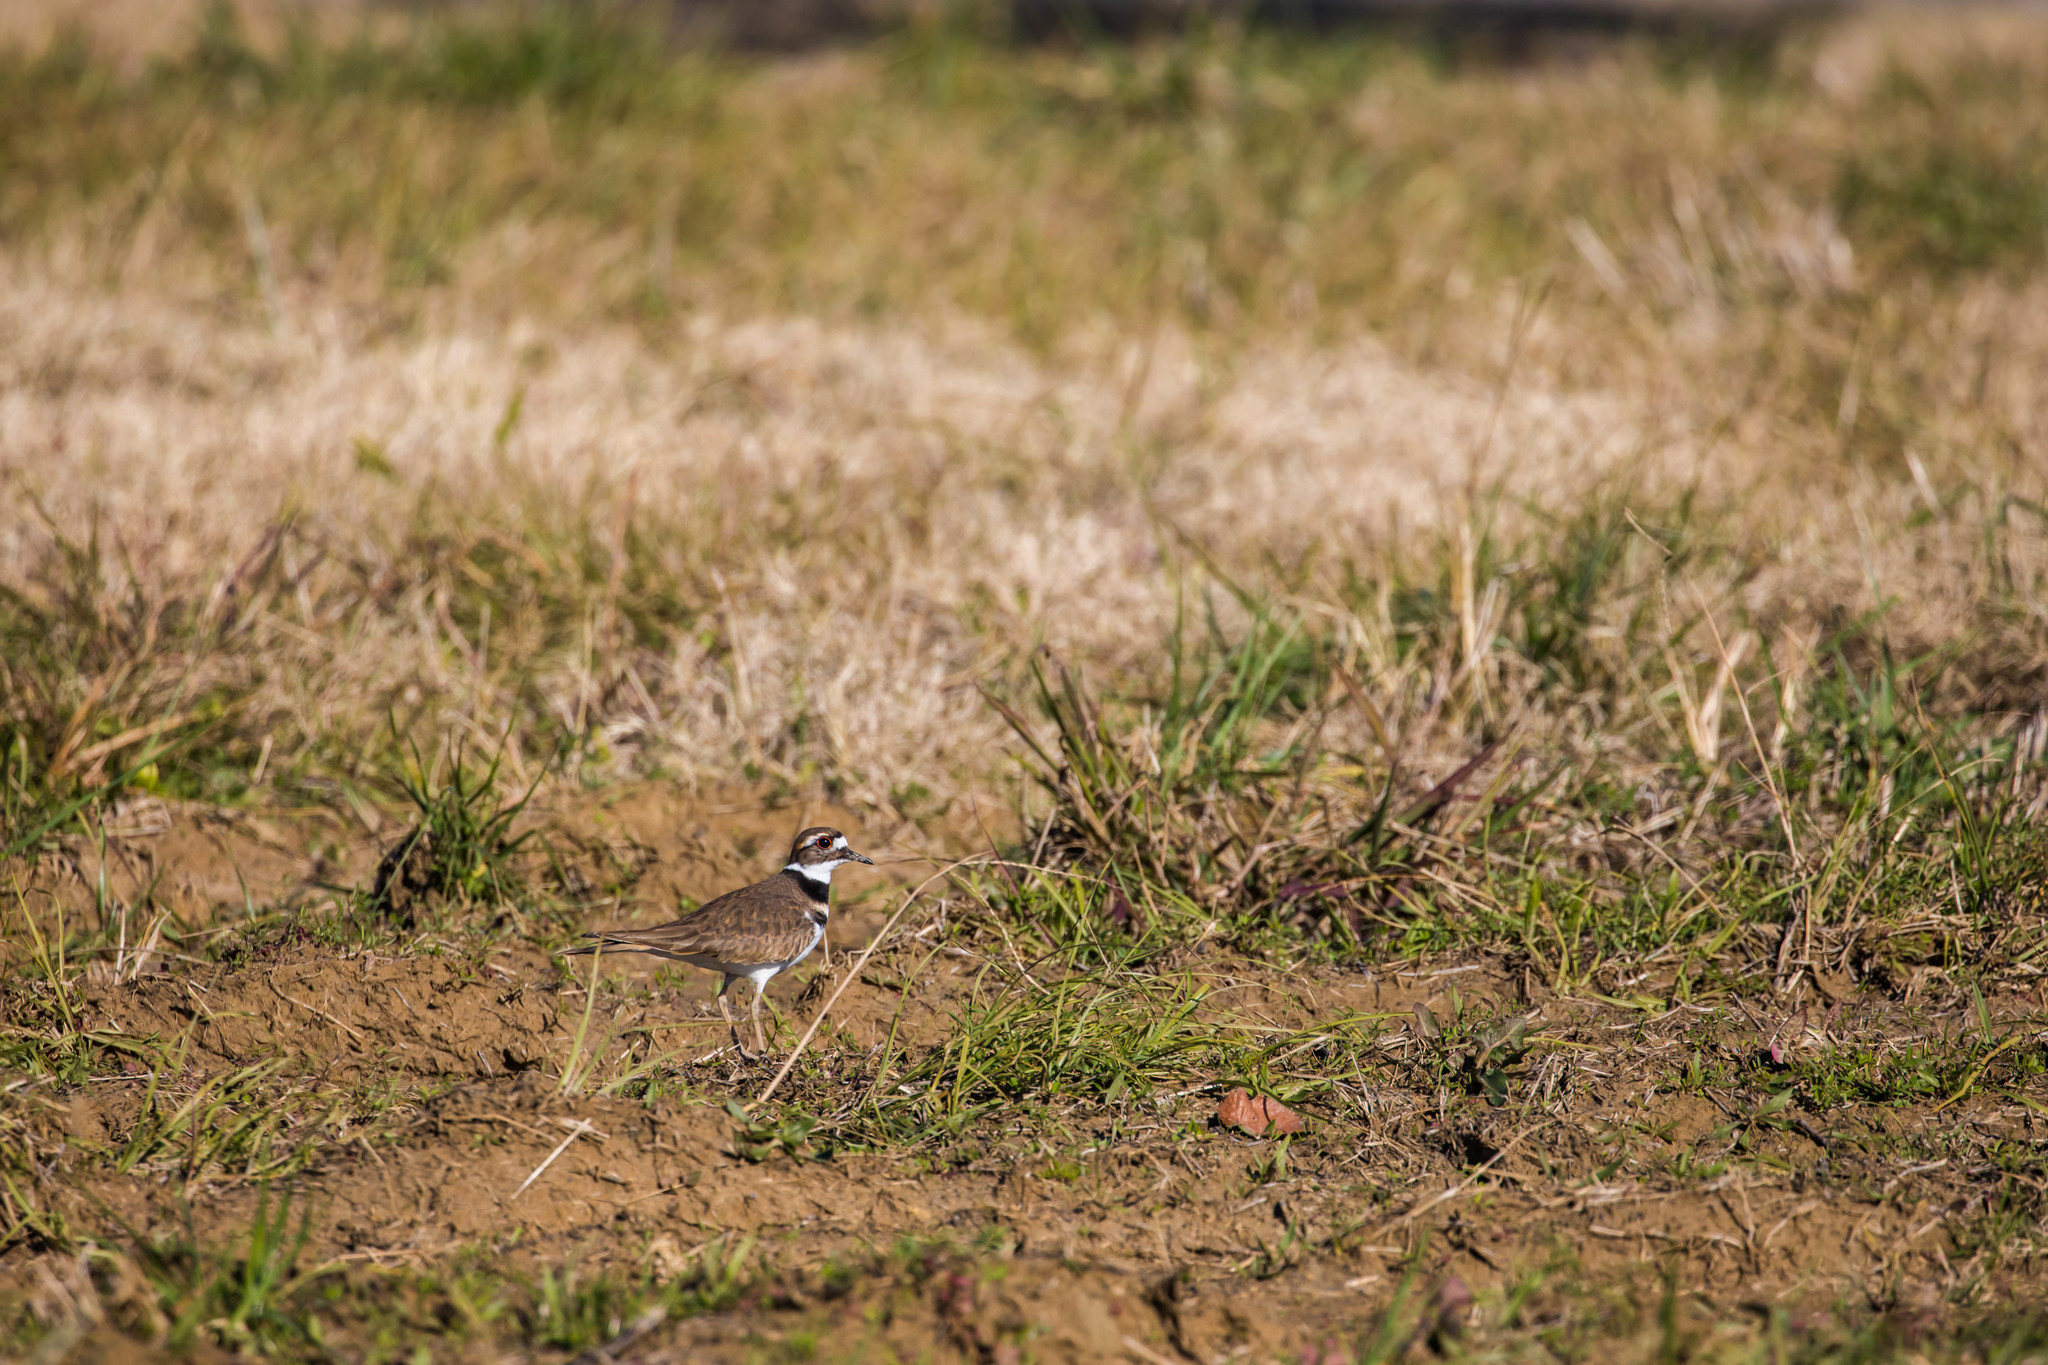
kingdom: Animalia
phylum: Chordata
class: Aves
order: Charadriiformes
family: Charadriidae
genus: Charadrius
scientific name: Charadrius vociferus
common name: Killdeer
